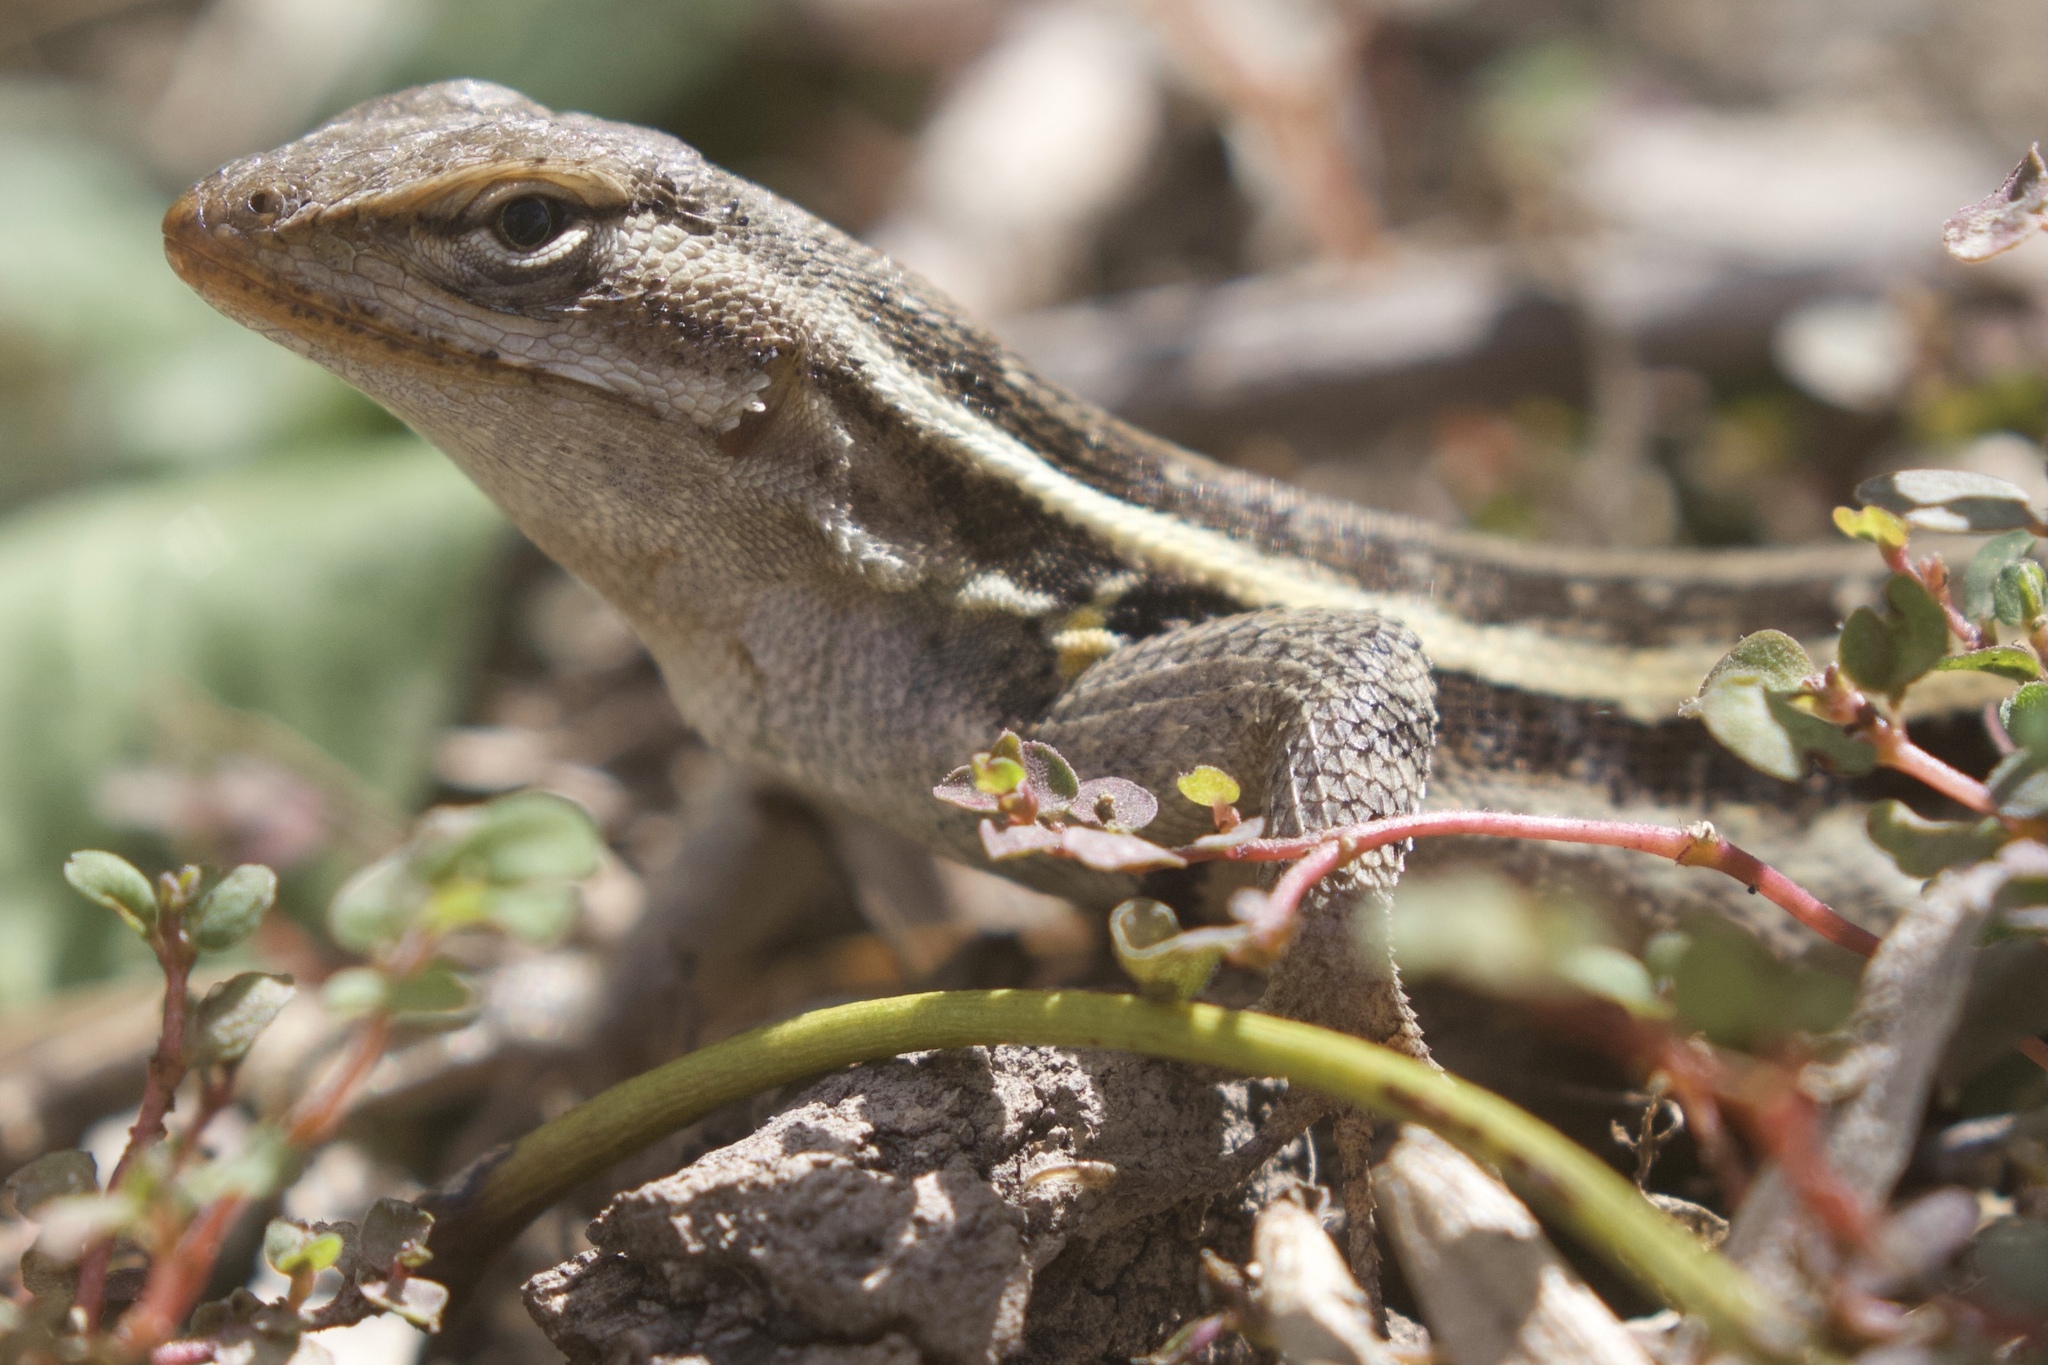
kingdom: Animalia
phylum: Chordata
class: Squamata
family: Phrynosomatidae
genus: Sceloporus
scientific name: Sceloporus variabilis
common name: Rosebelly lizard
